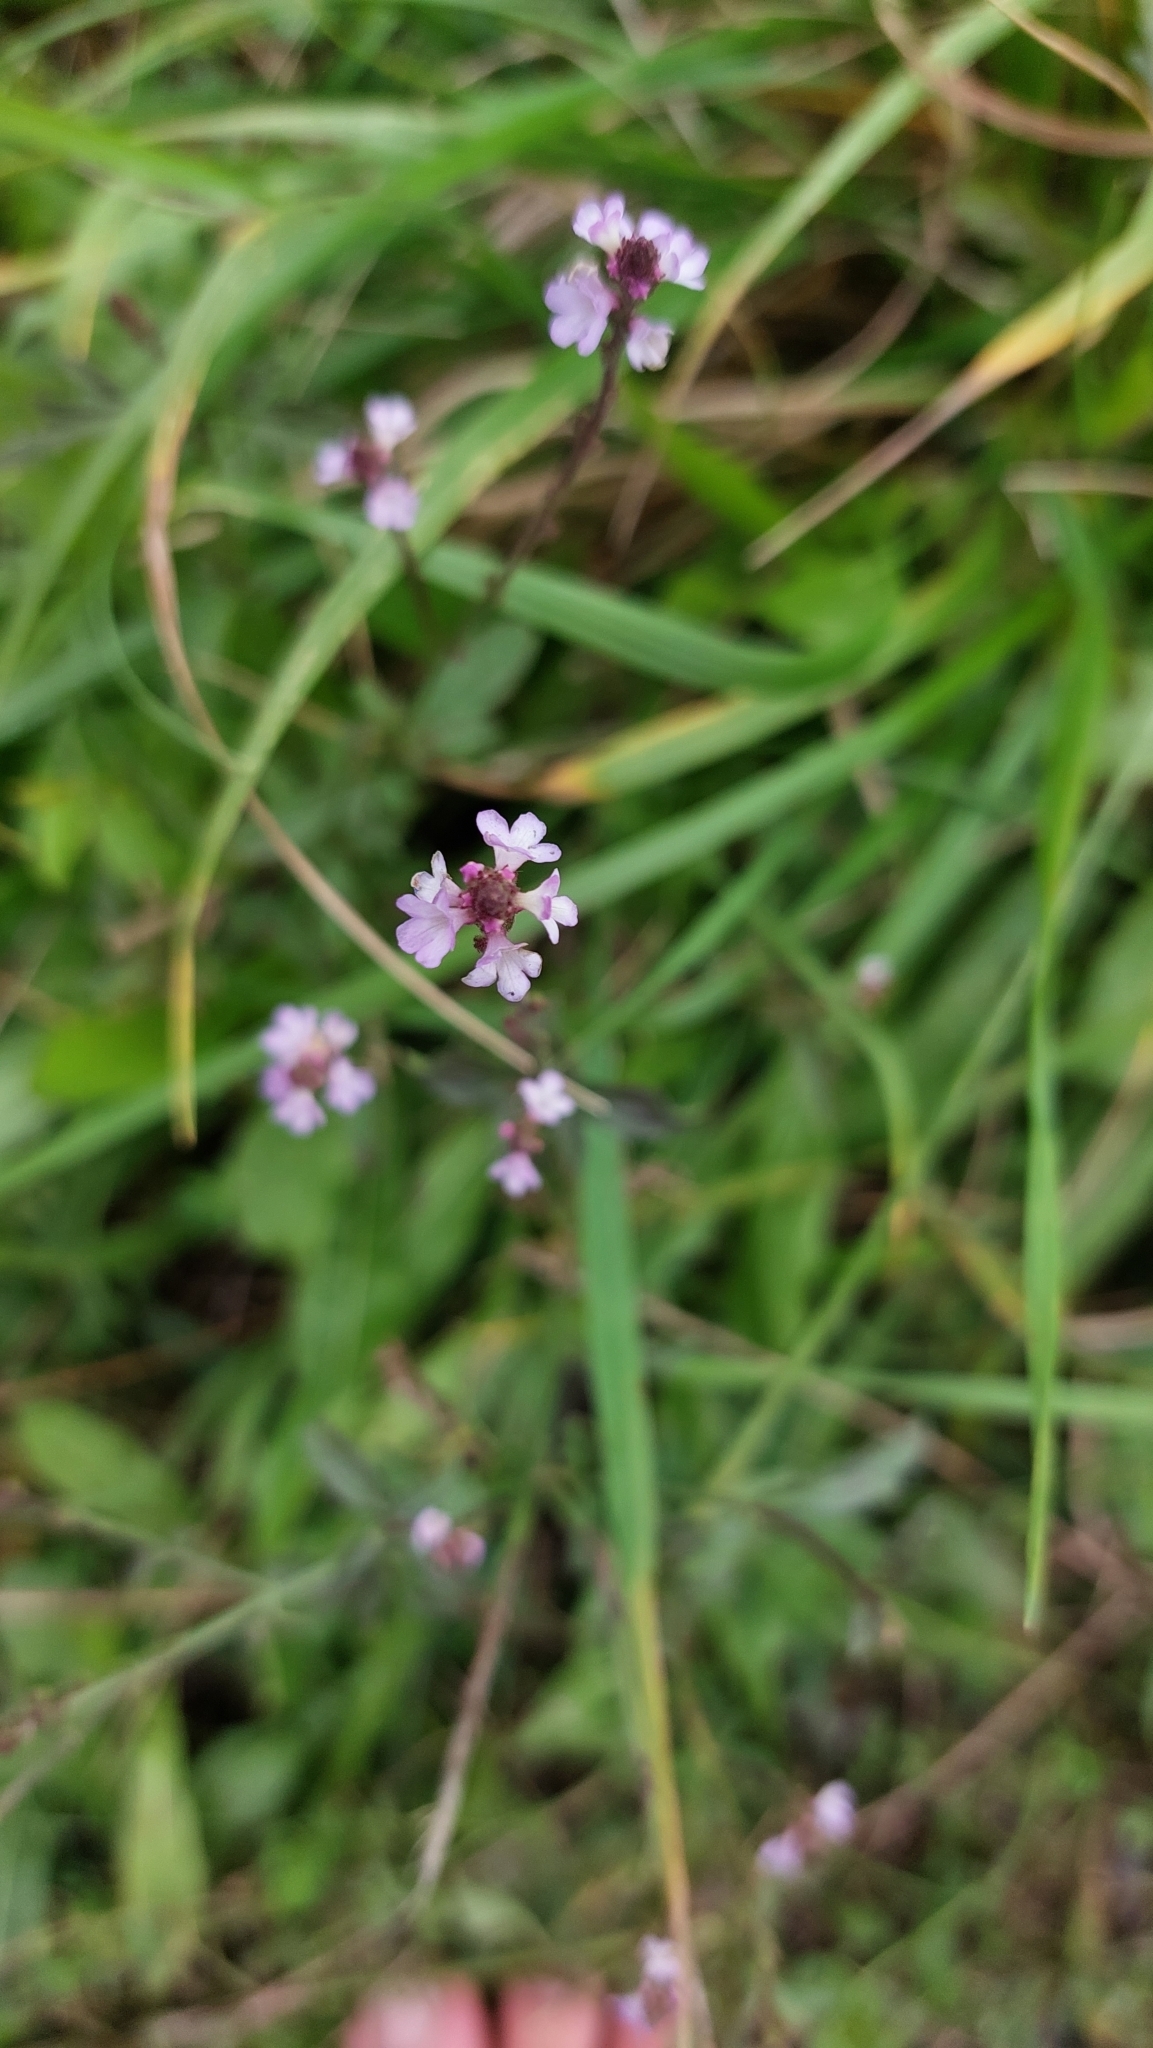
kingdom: Plantae
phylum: Tracheophyta
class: Magnoliopsida
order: Lamiales
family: Verbenaceae
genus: Verbena
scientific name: Verbena officinalis
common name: Vervain
